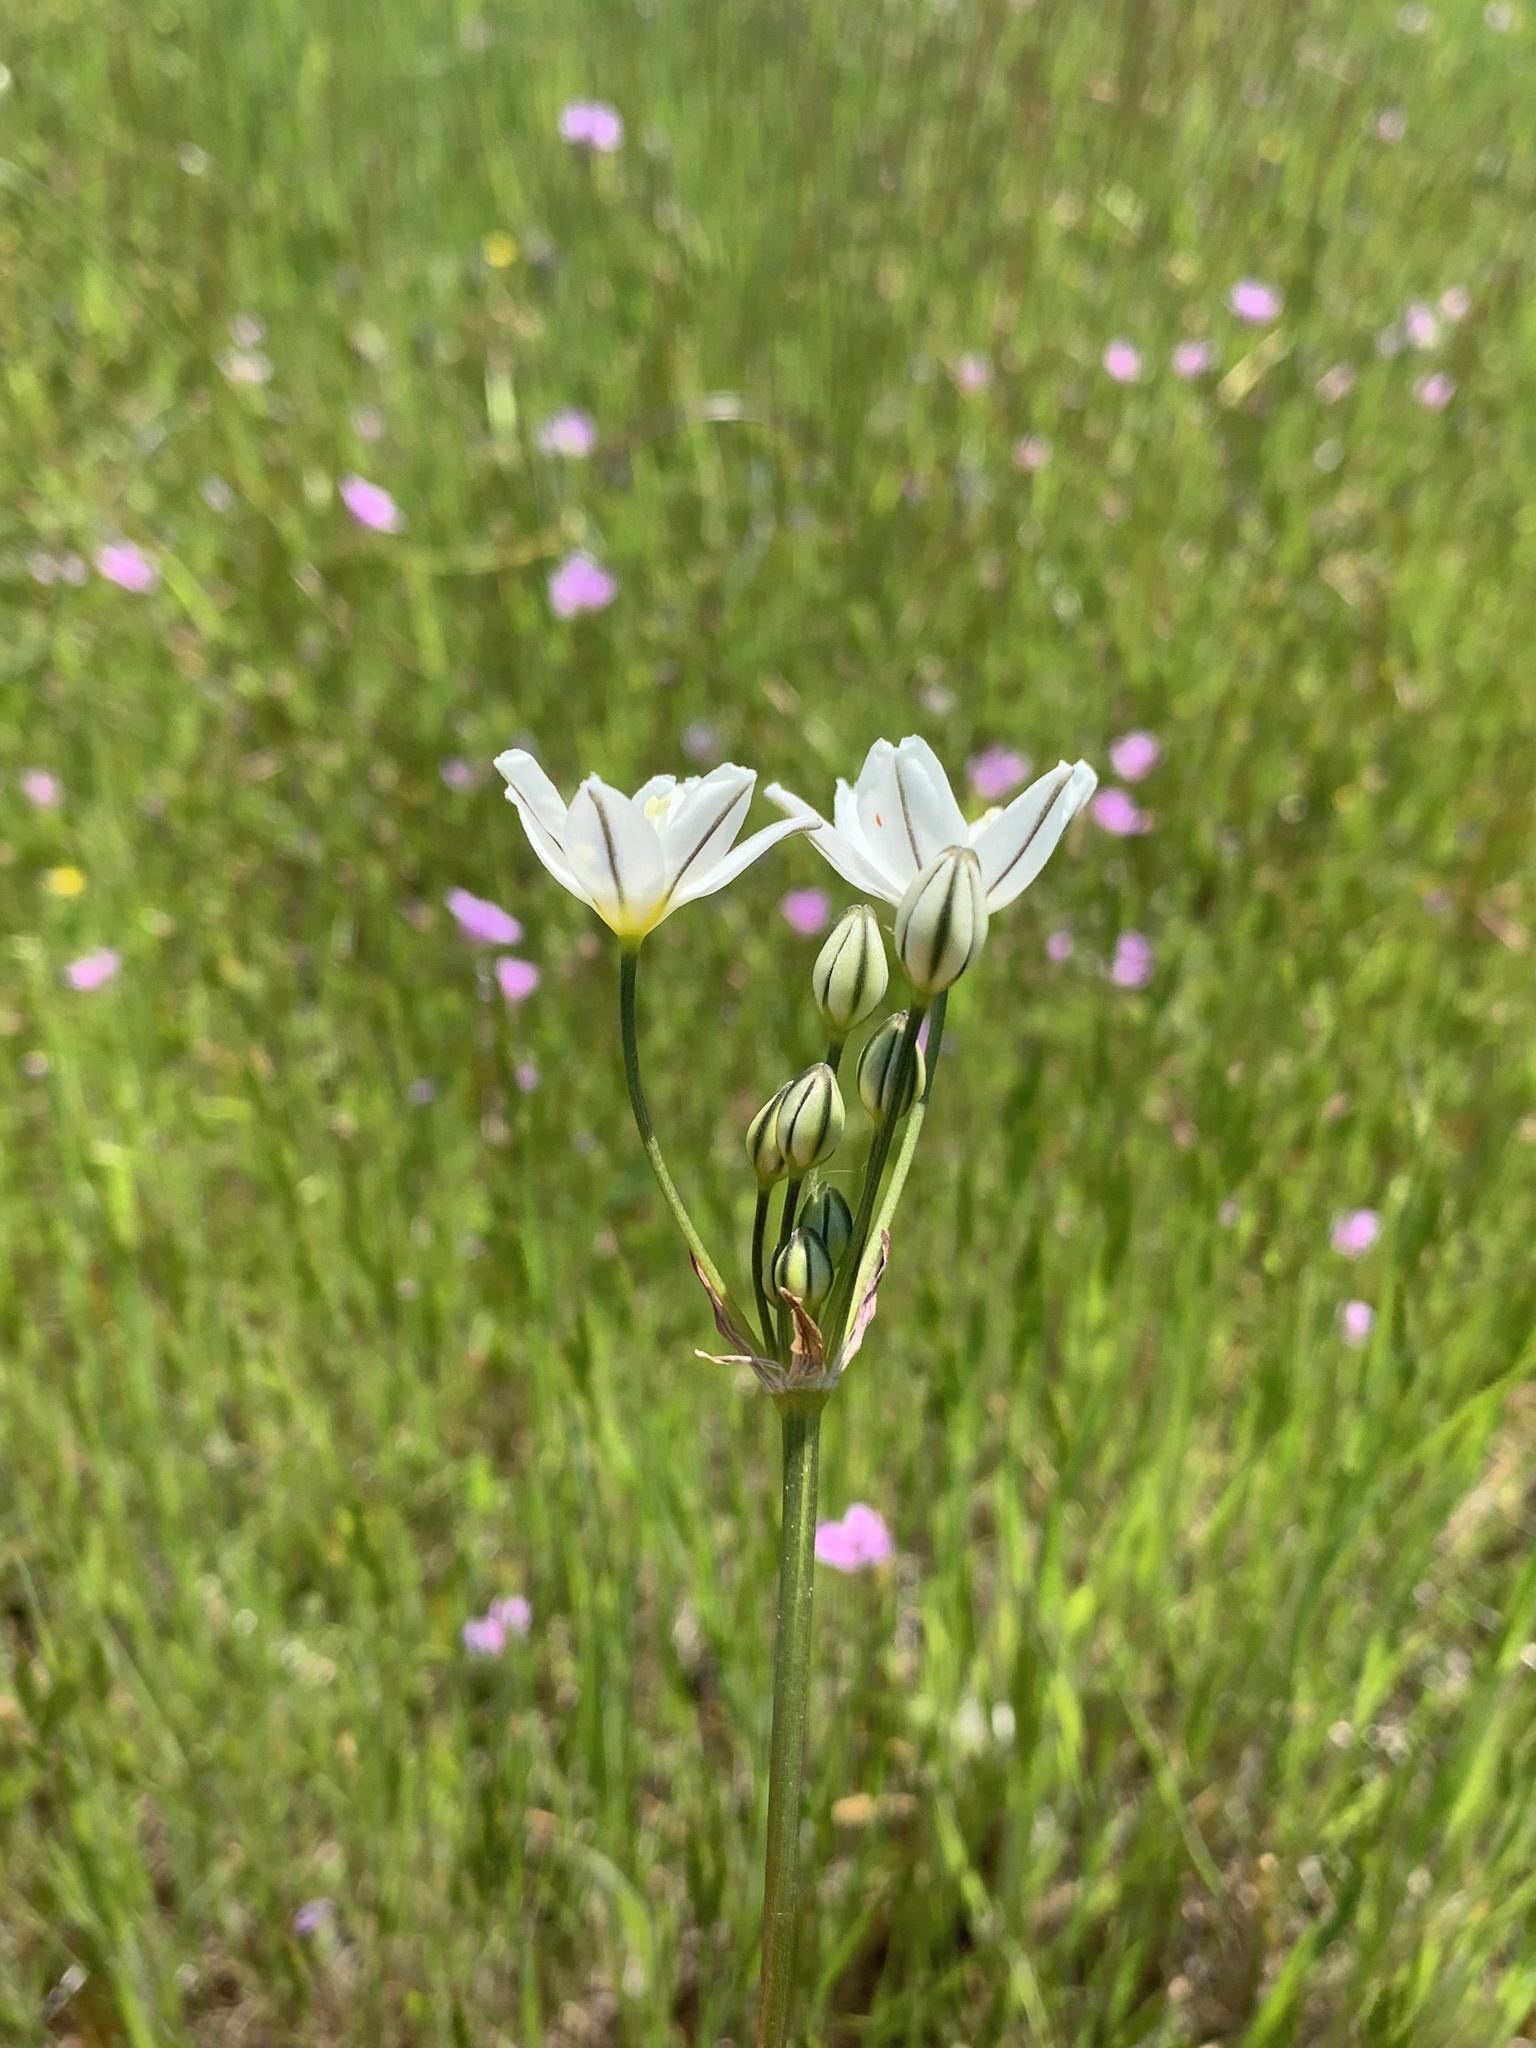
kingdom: Plantae
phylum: Tracheophyta
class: Liliopsida
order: Asparagales
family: Asparagaceae
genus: Triteleia
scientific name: Triteleia hyacinthina
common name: White brodiaea
